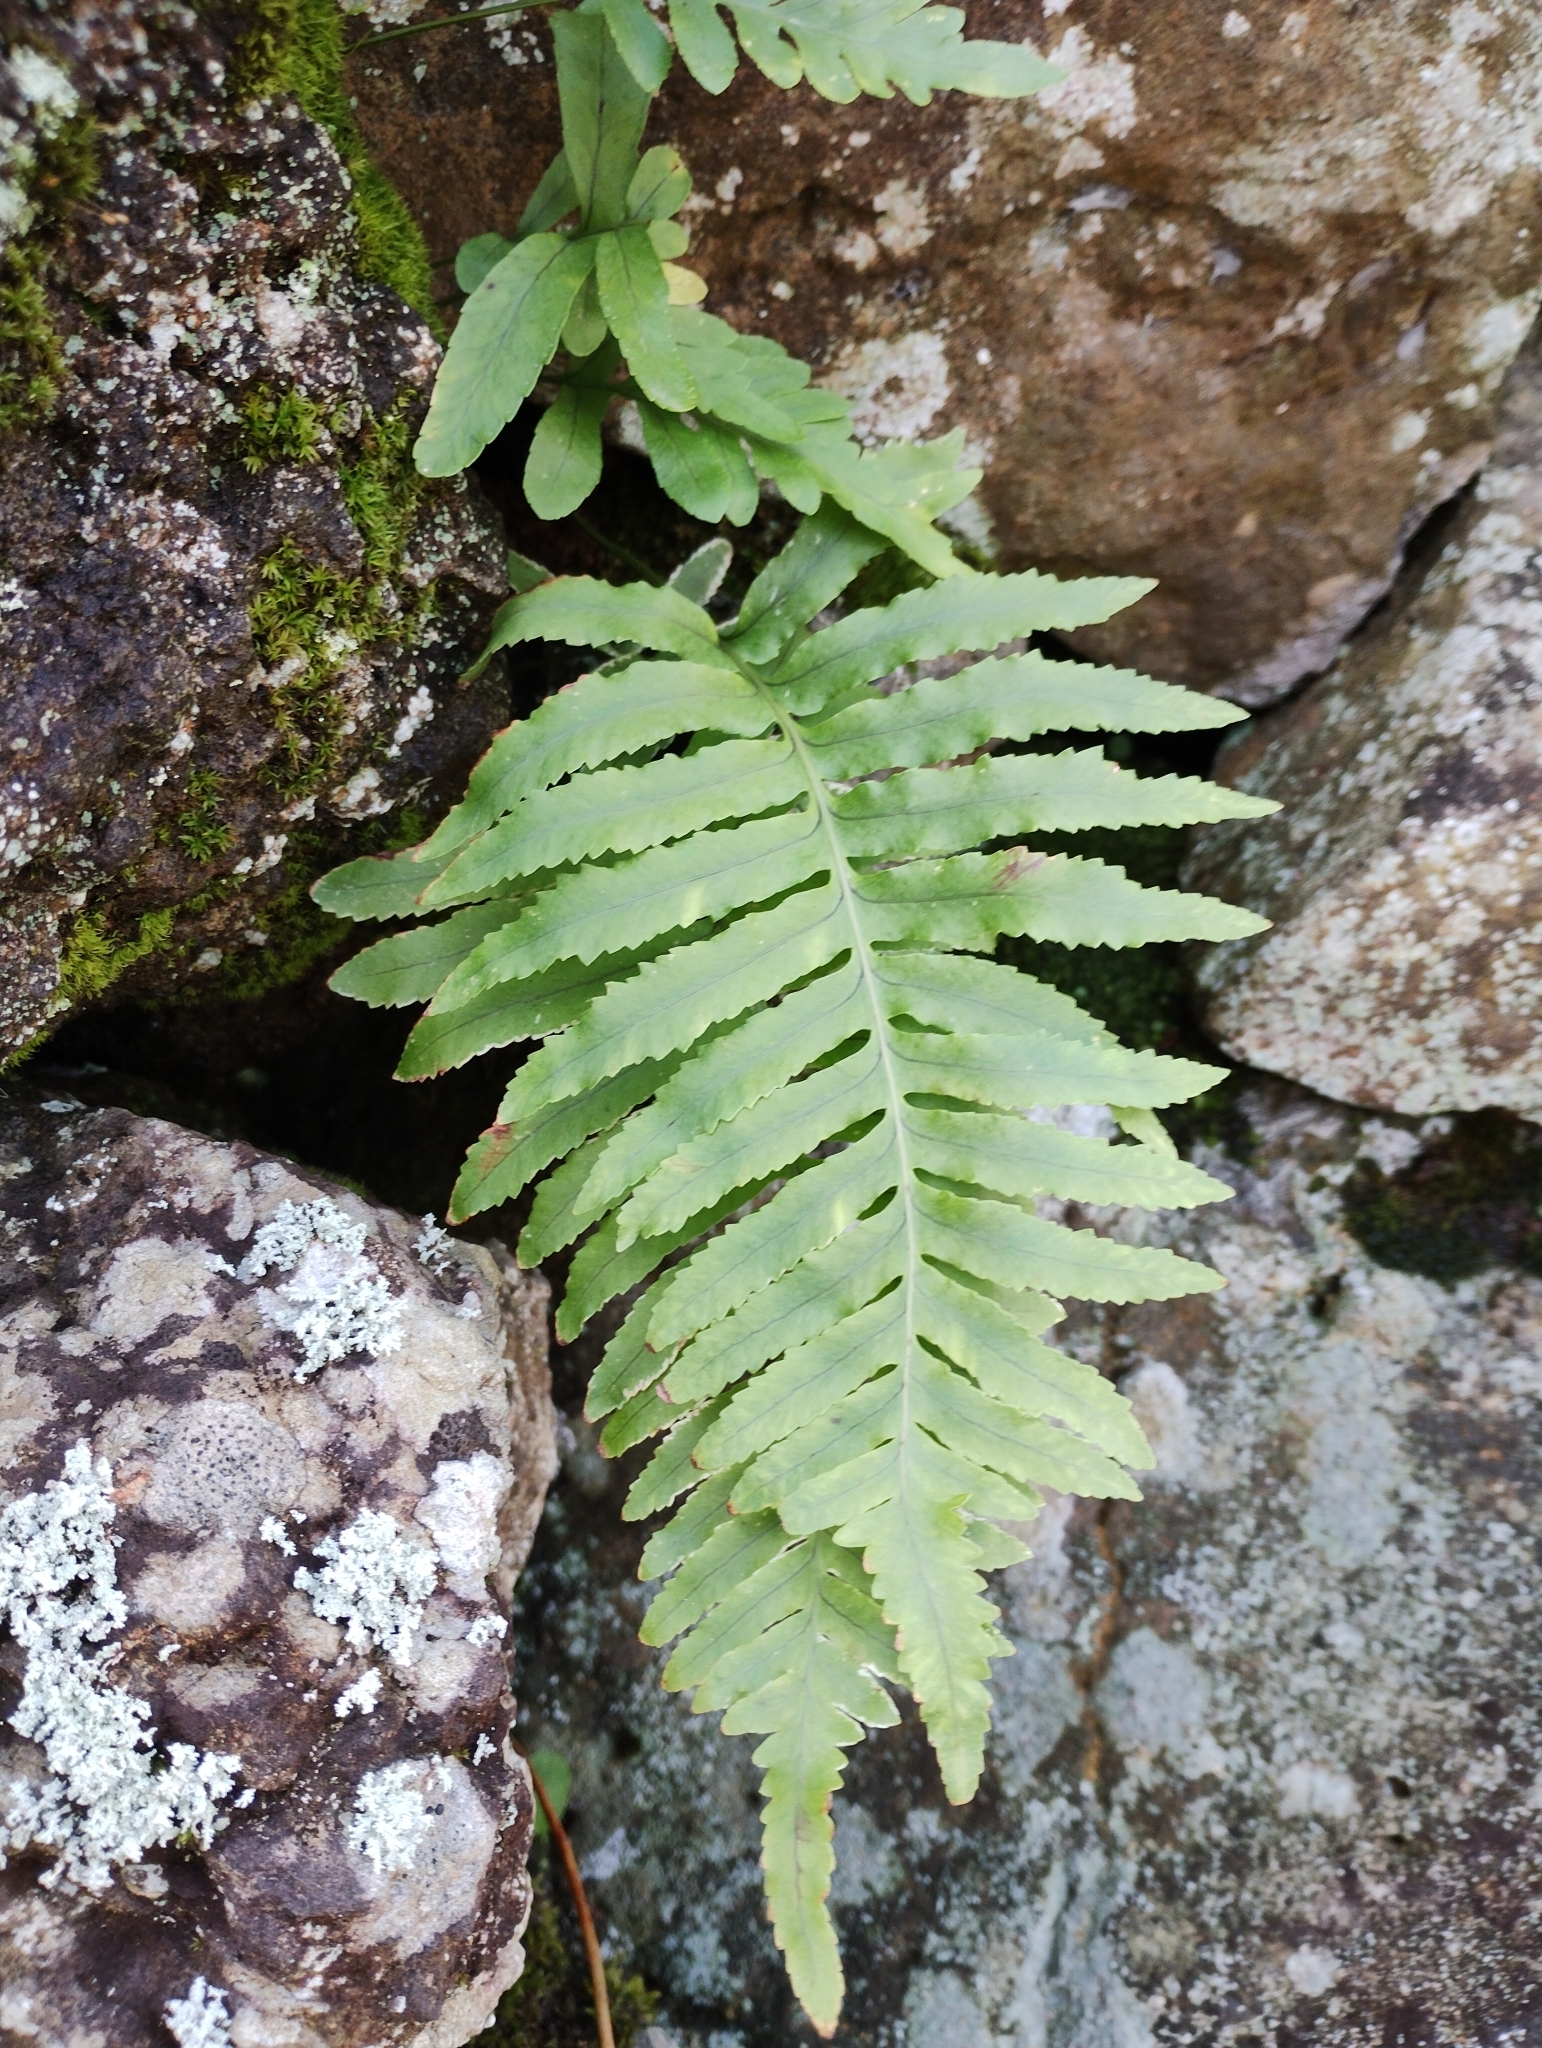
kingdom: Plantae
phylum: Tracheophyta
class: Polypodiopsida
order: Polypodiales
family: Polypodiaceae
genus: Polypodium
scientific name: Polypodium macaronesicum
